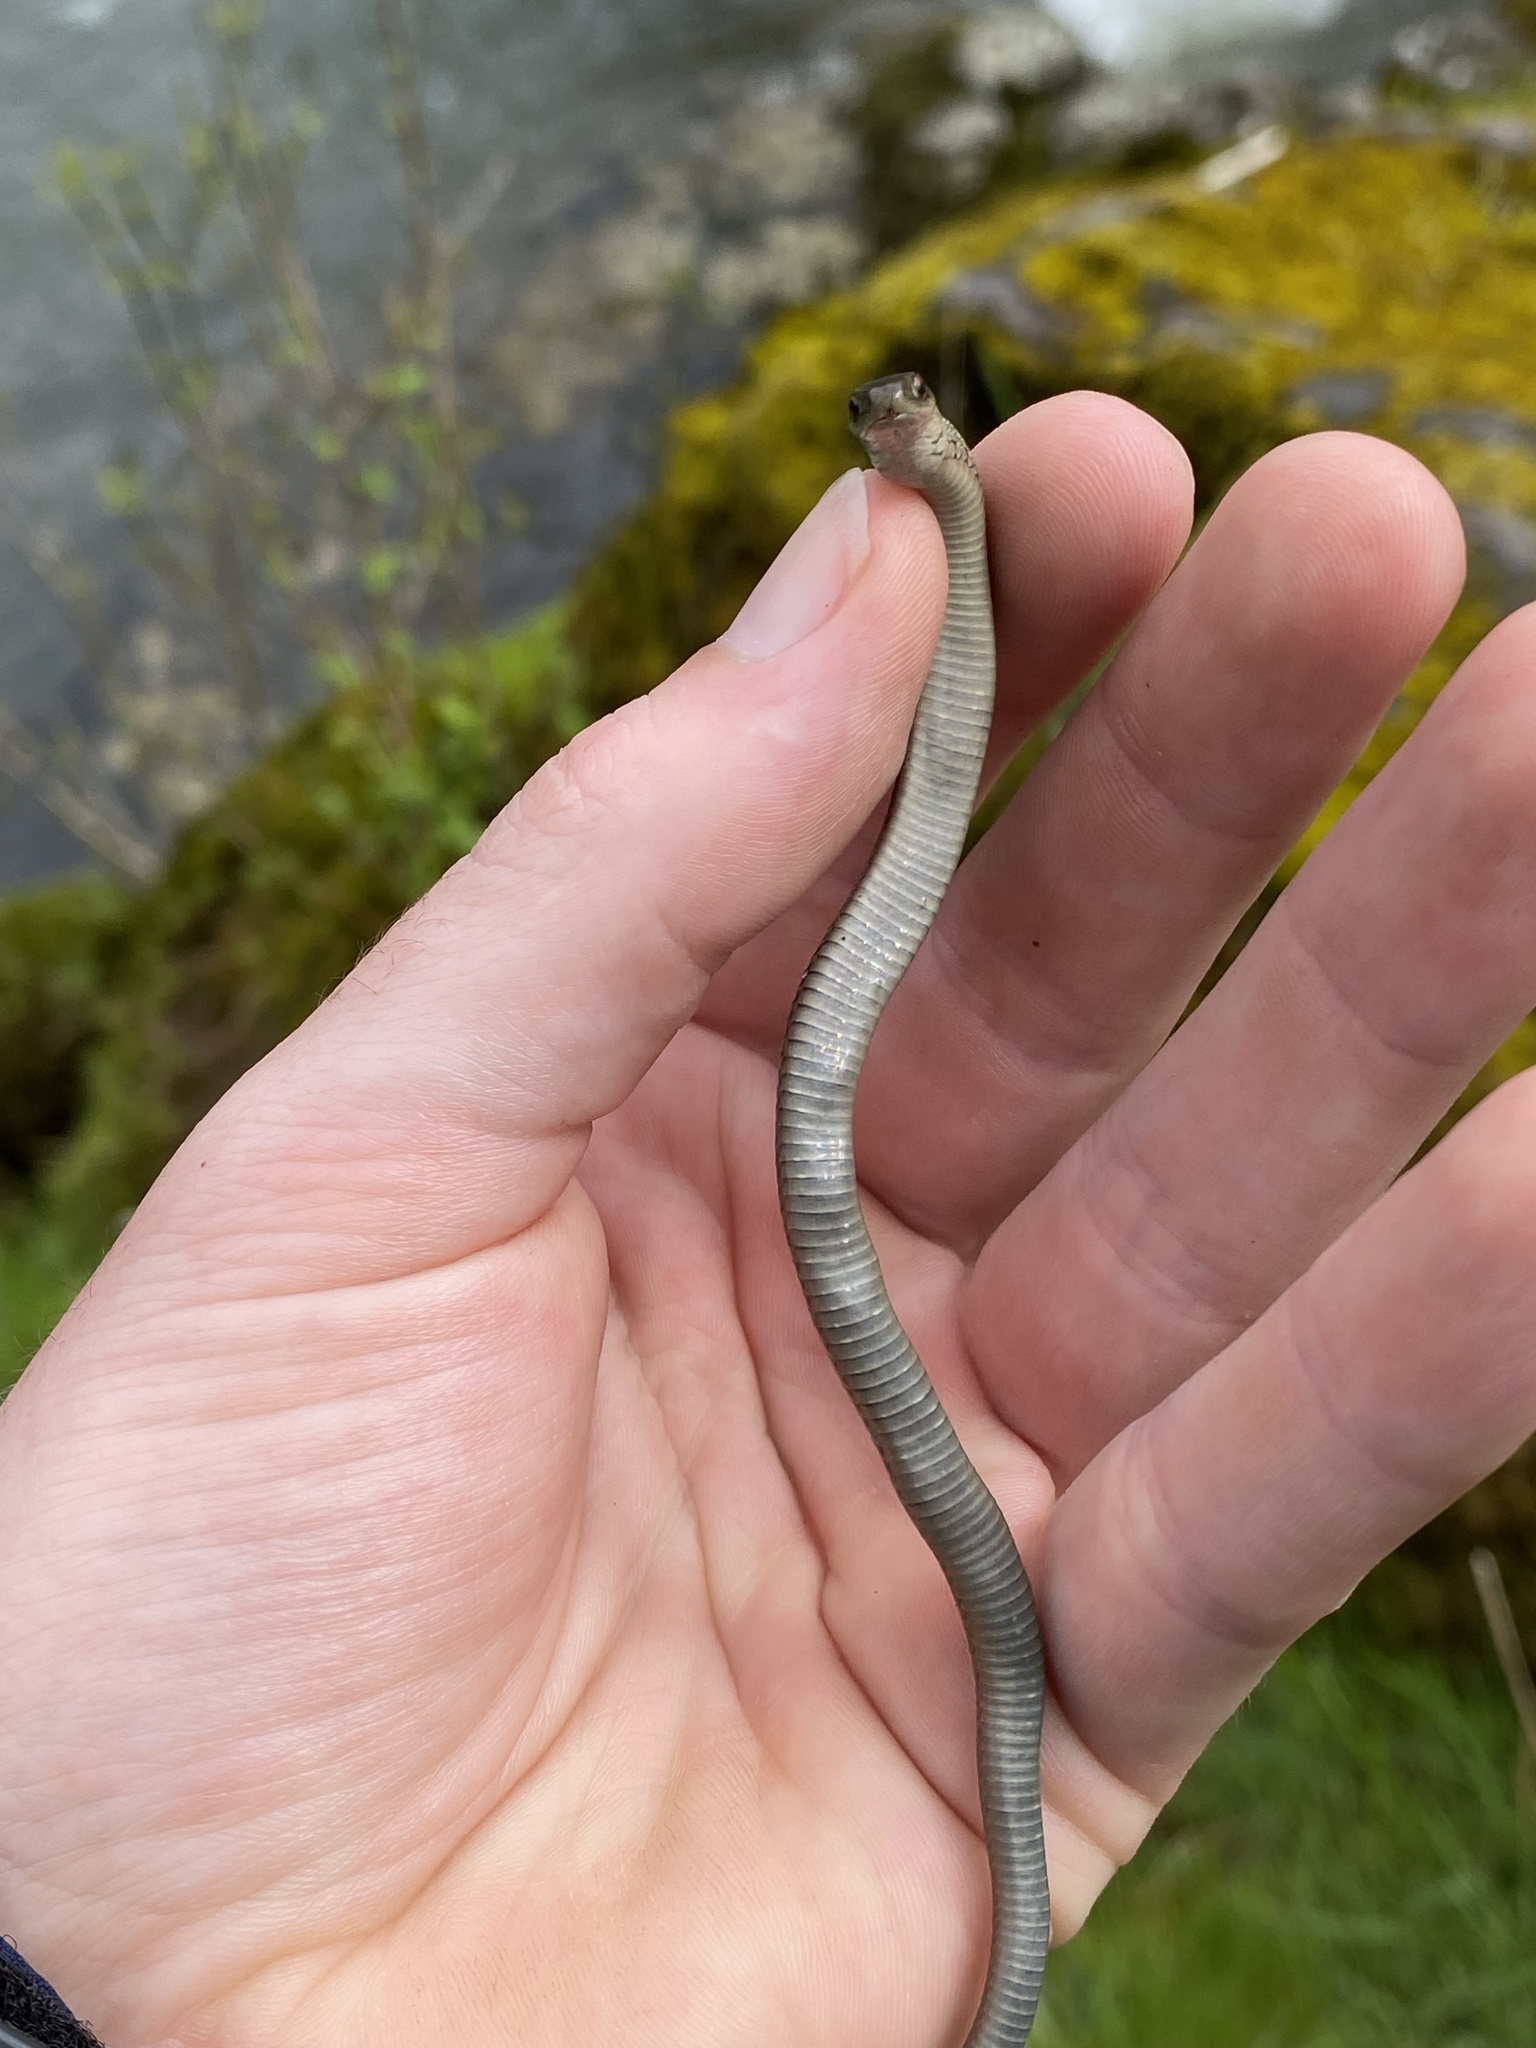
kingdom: Animalia
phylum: Chordata
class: Squamata
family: Colubridae
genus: Thamnophis
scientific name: Thamnophis ordinoides
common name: Northwestern garter snake
